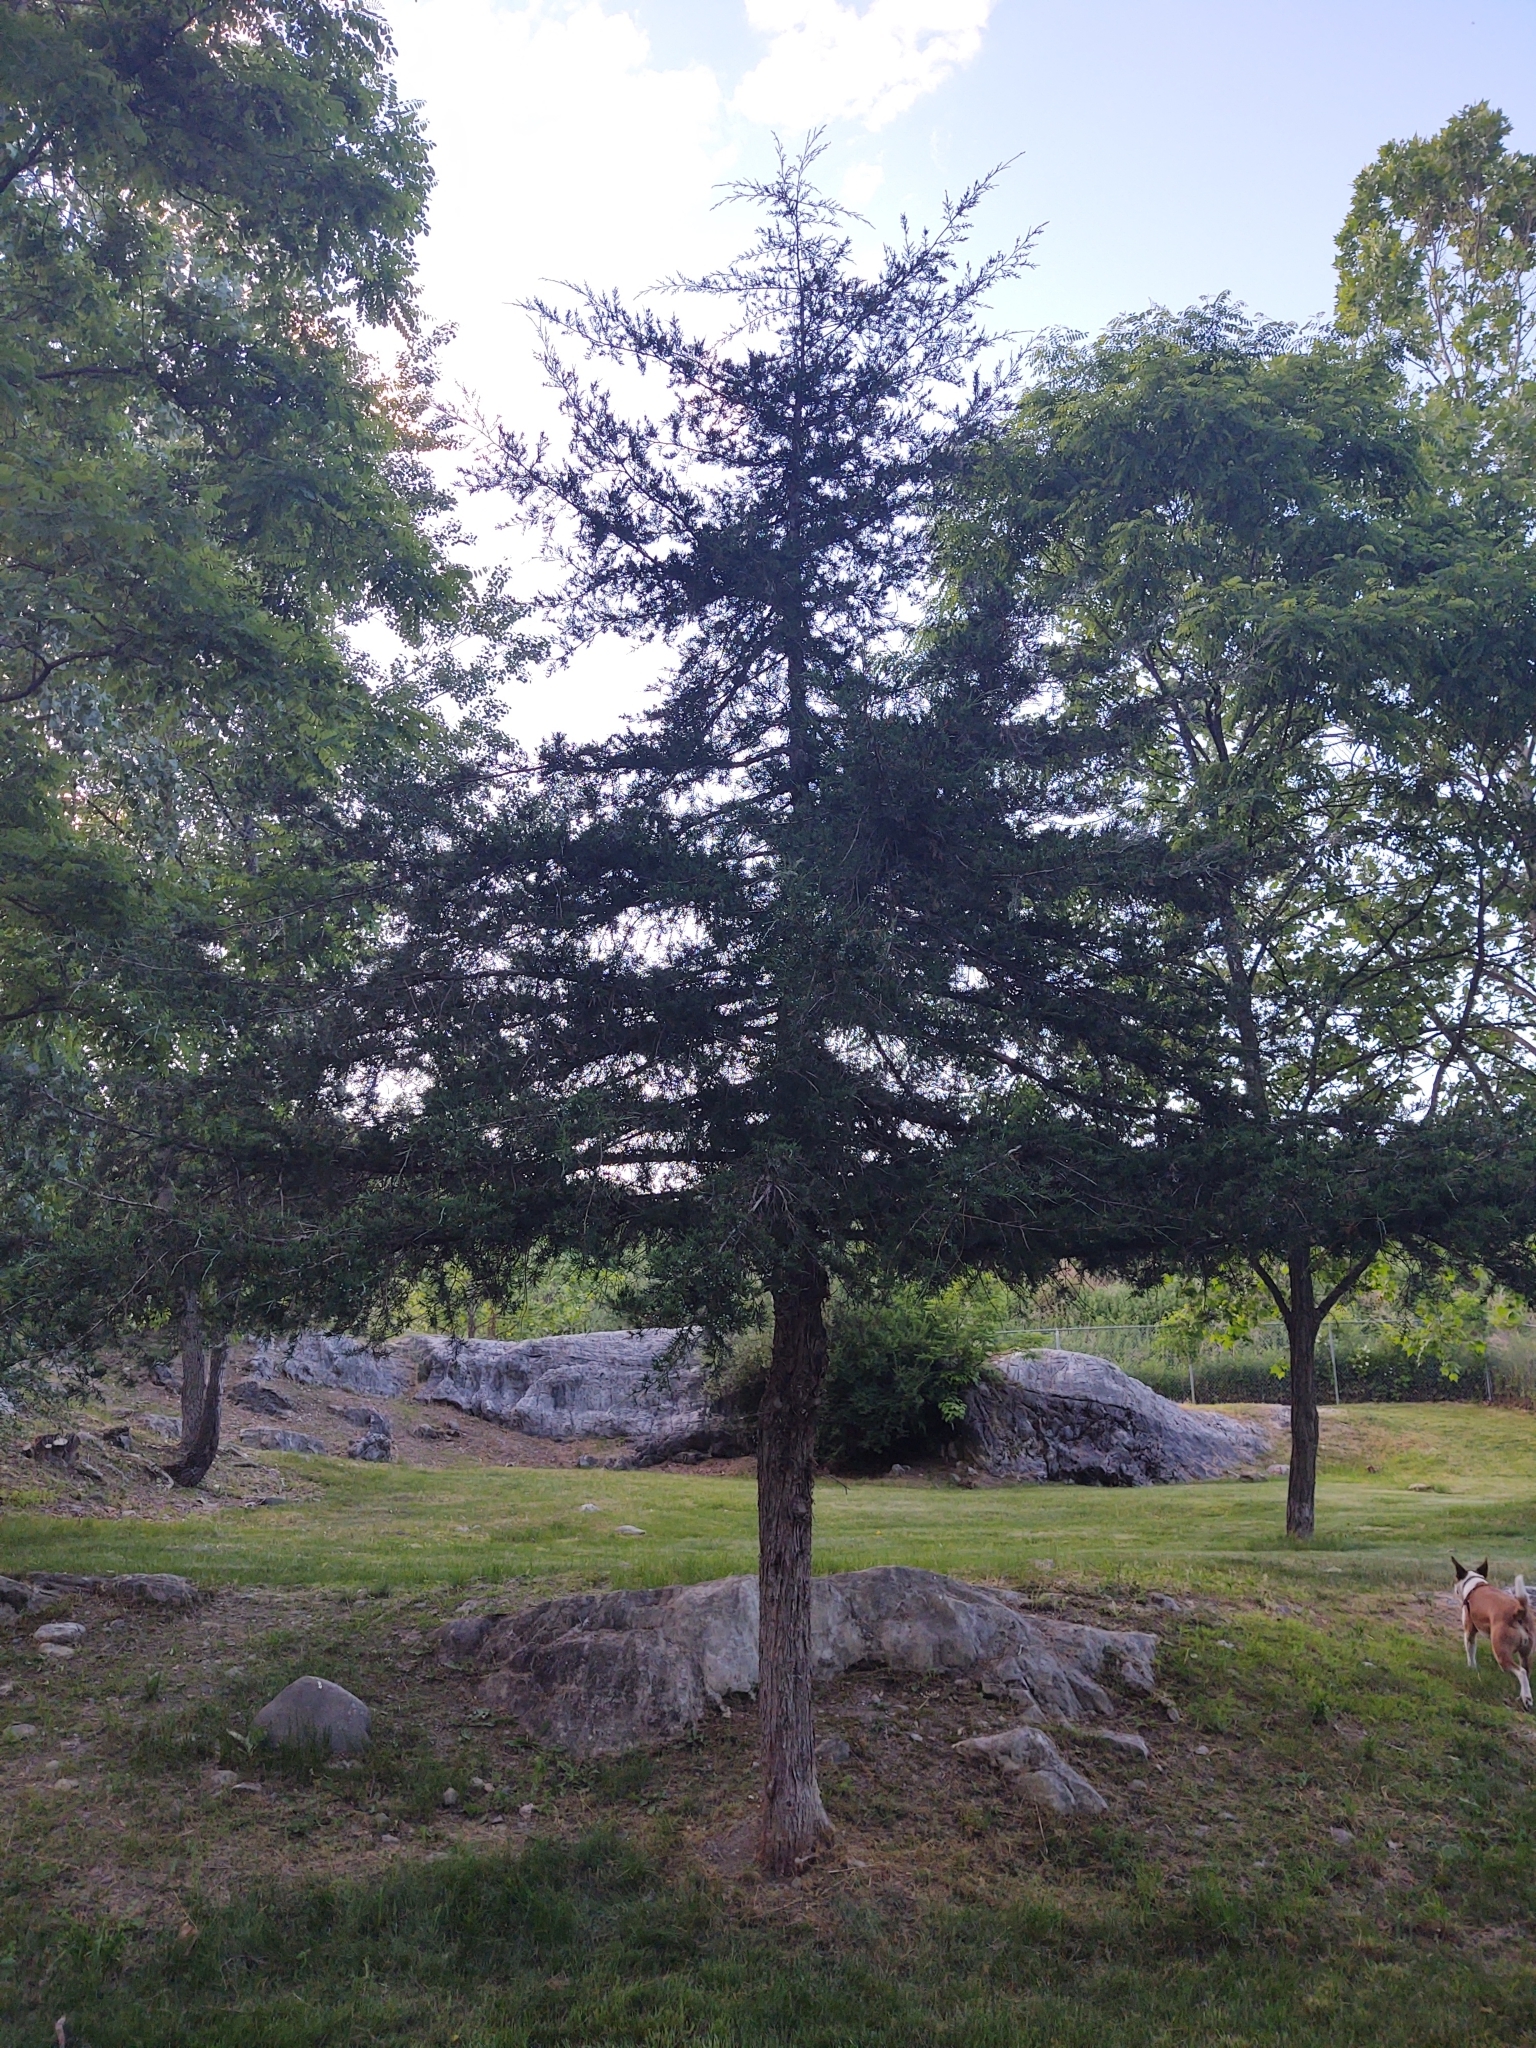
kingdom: Plantae
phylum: Tracheophyta
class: Pinopsida
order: Pinales
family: Cupressaceae
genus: Juniperus
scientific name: Juniperus virginiana
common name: Red juniper
